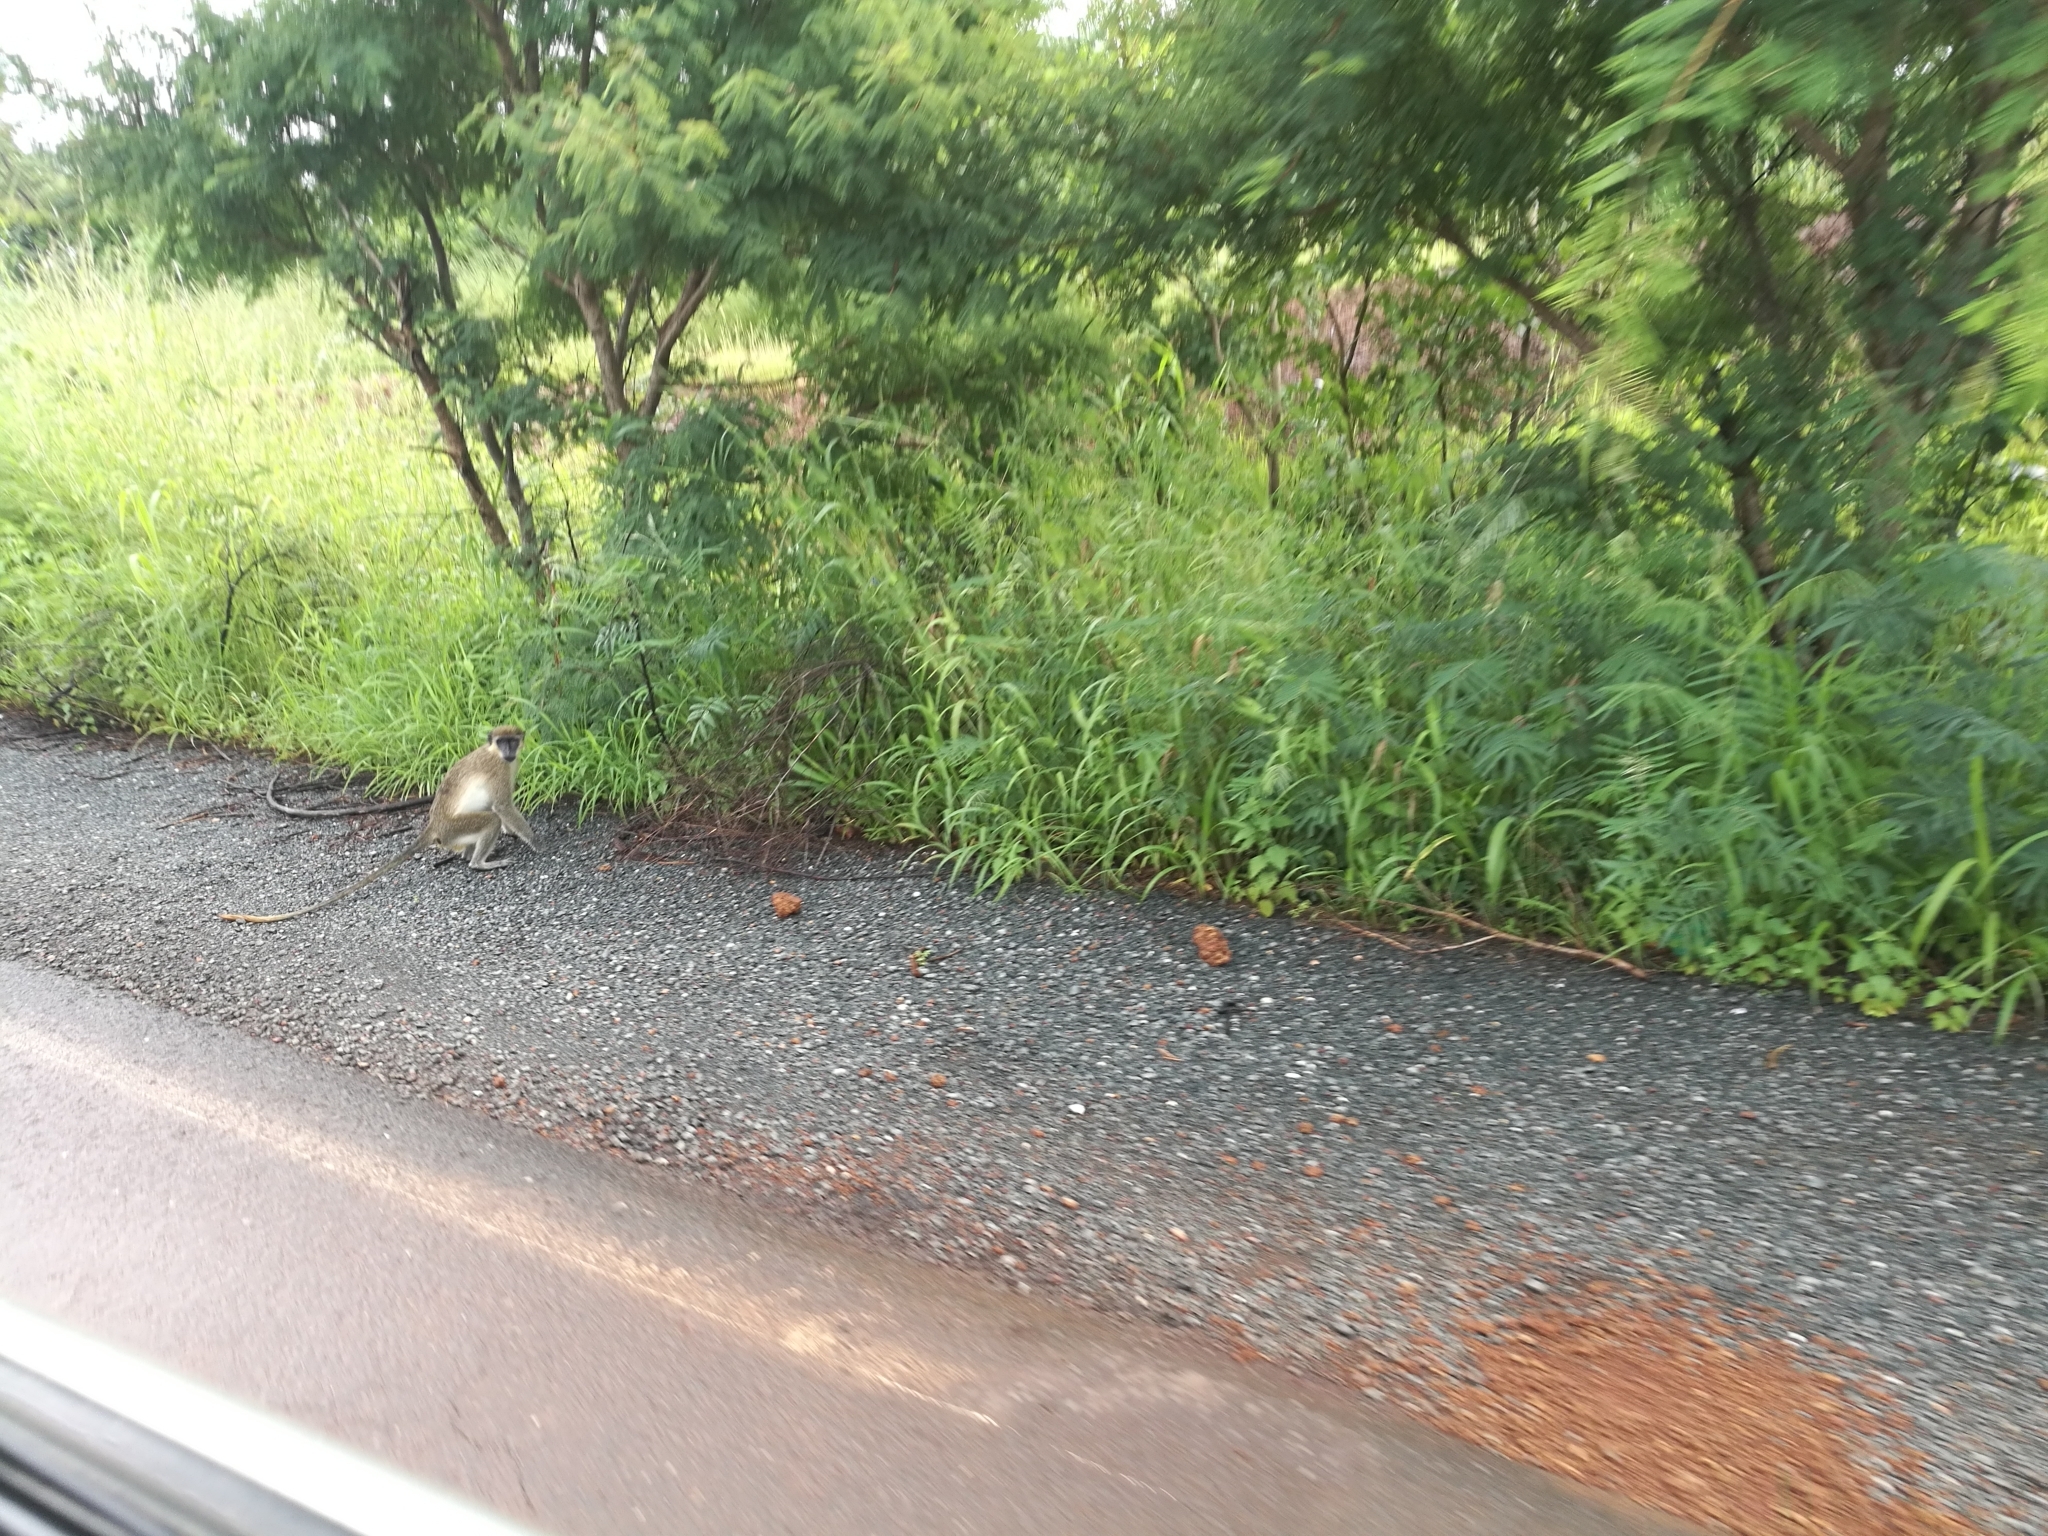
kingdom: Animalia
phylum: Chordata
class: Mammalia
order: Primates
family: Cercopithecidae
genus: Chlorocebus
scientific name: Chlorocebus sabaeus
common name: Green monkey
